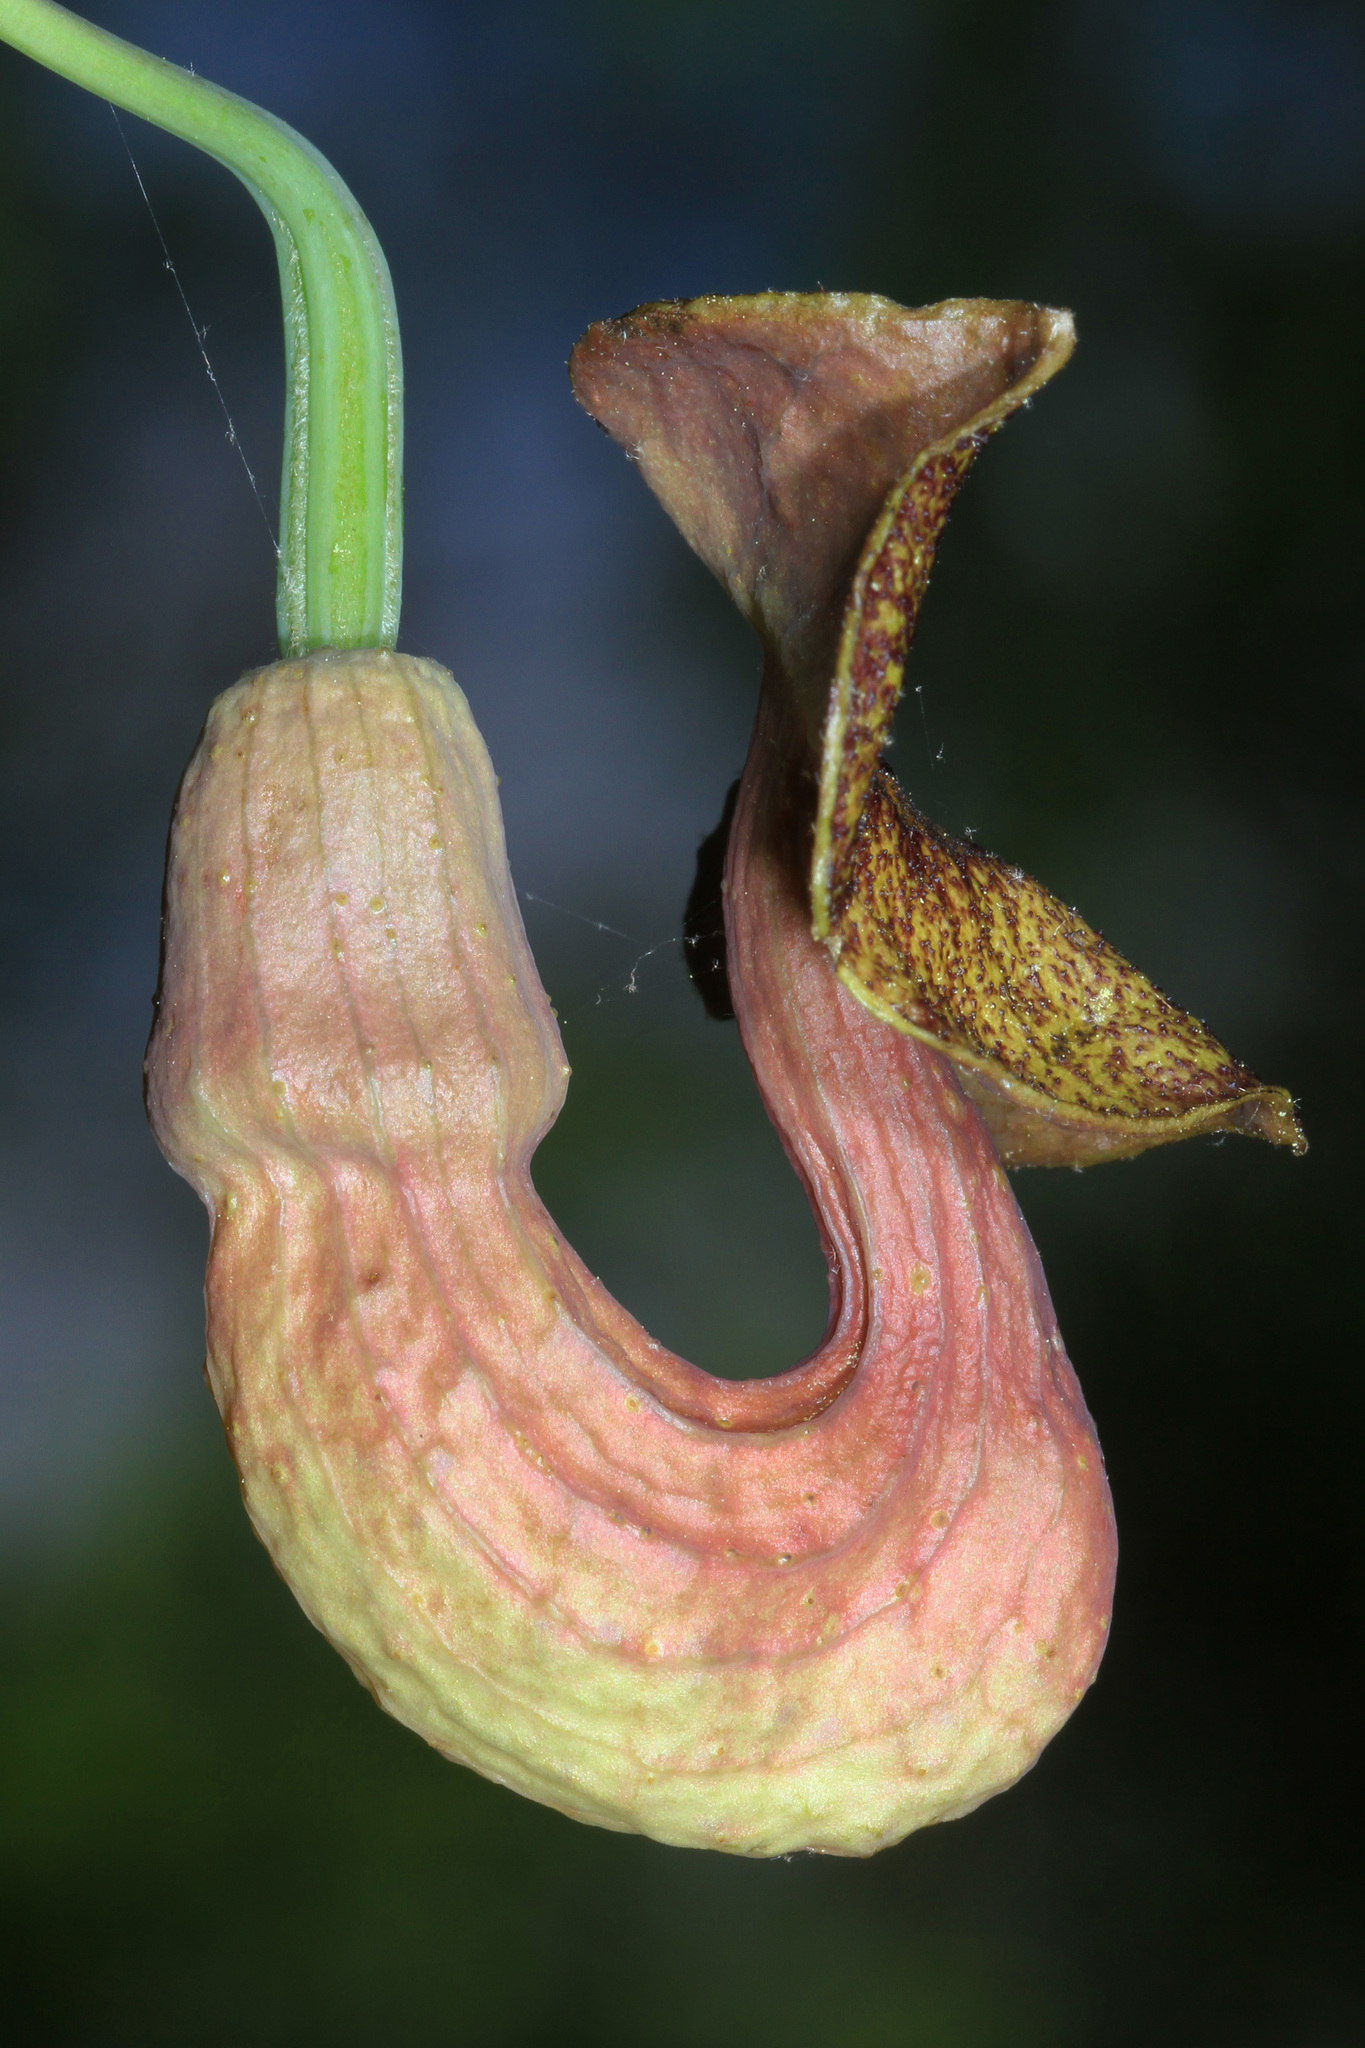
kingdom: Plantae
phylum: Tracheophyta
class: Magnoliopsida
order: Piperales
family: Aristolochiaceae
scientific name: Aristolochiaceae
